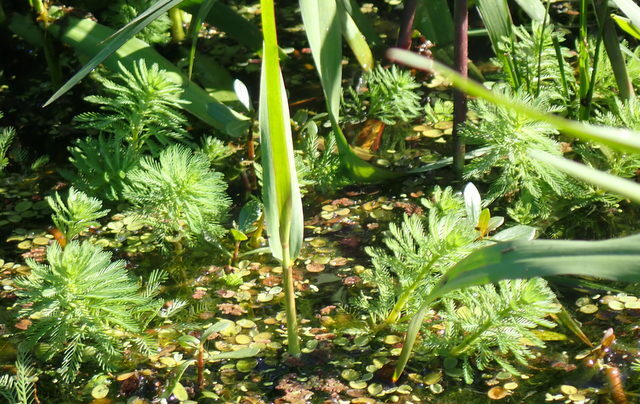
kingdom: Plantae
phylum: Tracheophyta
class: Magnoliopsida
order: Saxifragales
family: Haloragaceae
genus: Myriophyllum
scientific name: Myriophyllum aquaticum
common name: Parrot's feather
